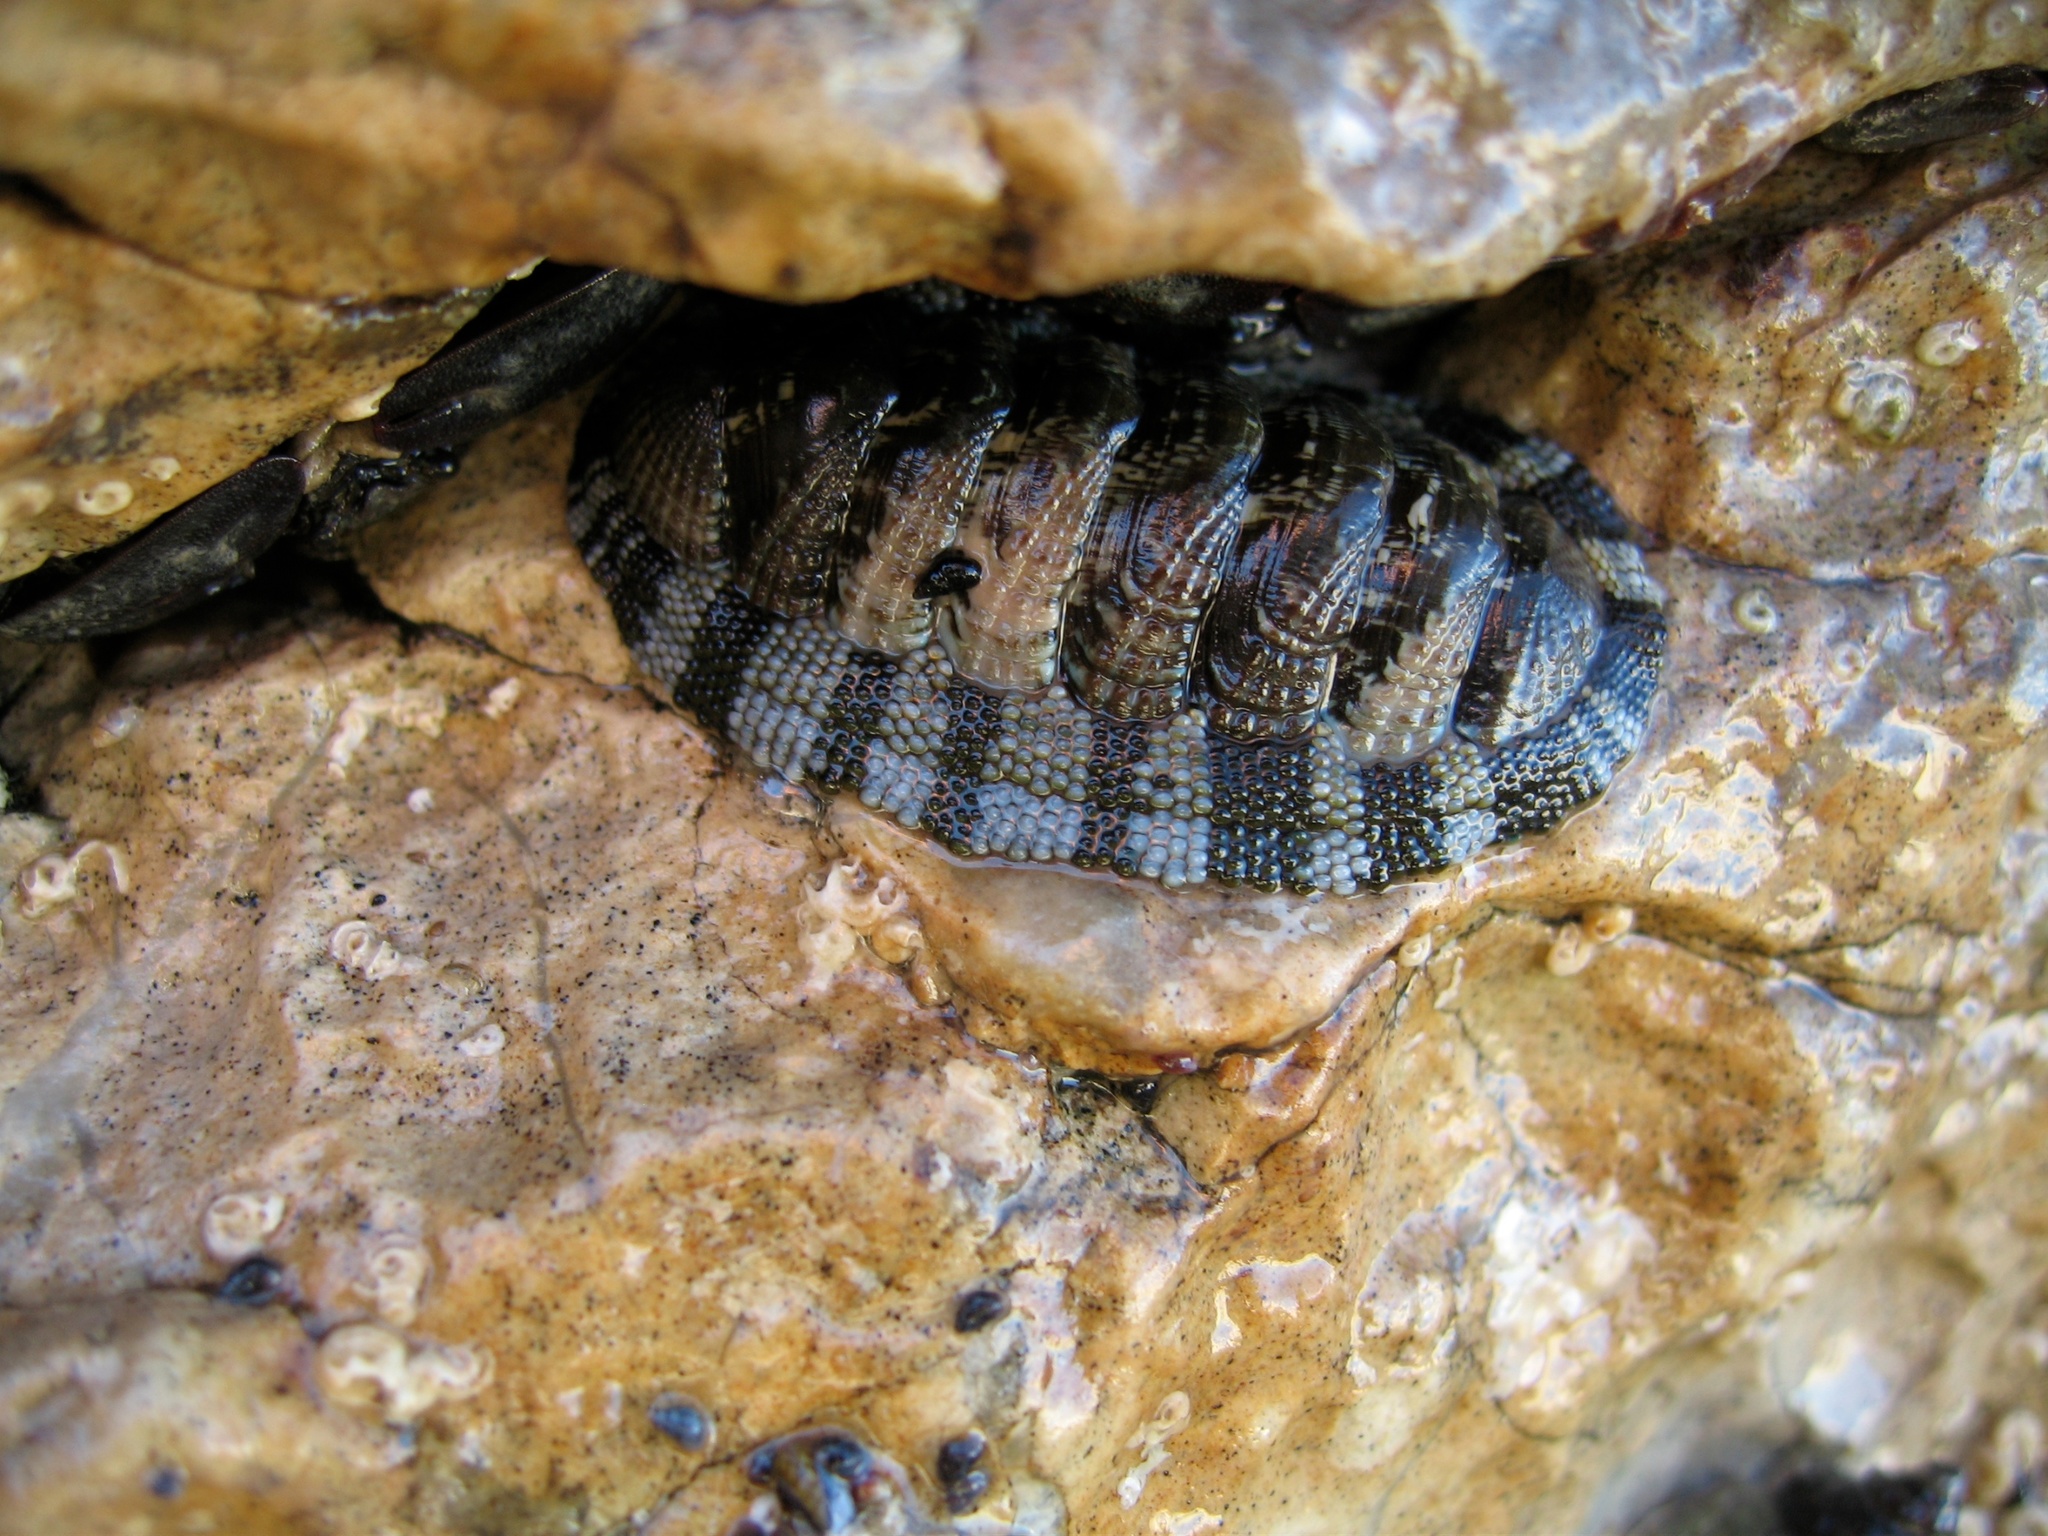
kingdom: Animalia
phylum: Mollusca
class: Polyplacophora
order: Chitonida
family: Chitonidae
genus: Sypharochiton
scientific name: Sypharochiton pelliserpentis
